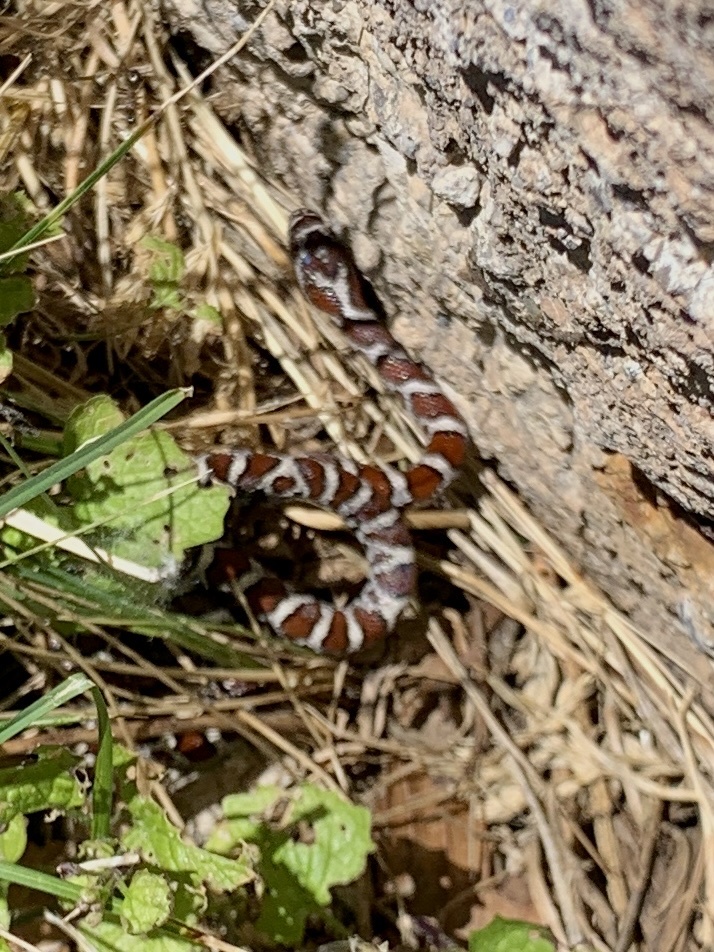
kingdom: Animalia
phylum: Chordata
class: Squamata
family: Colubridae
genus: Lampropeltis
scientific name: Lampropeltis triangulum
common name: Eastern milksnake
